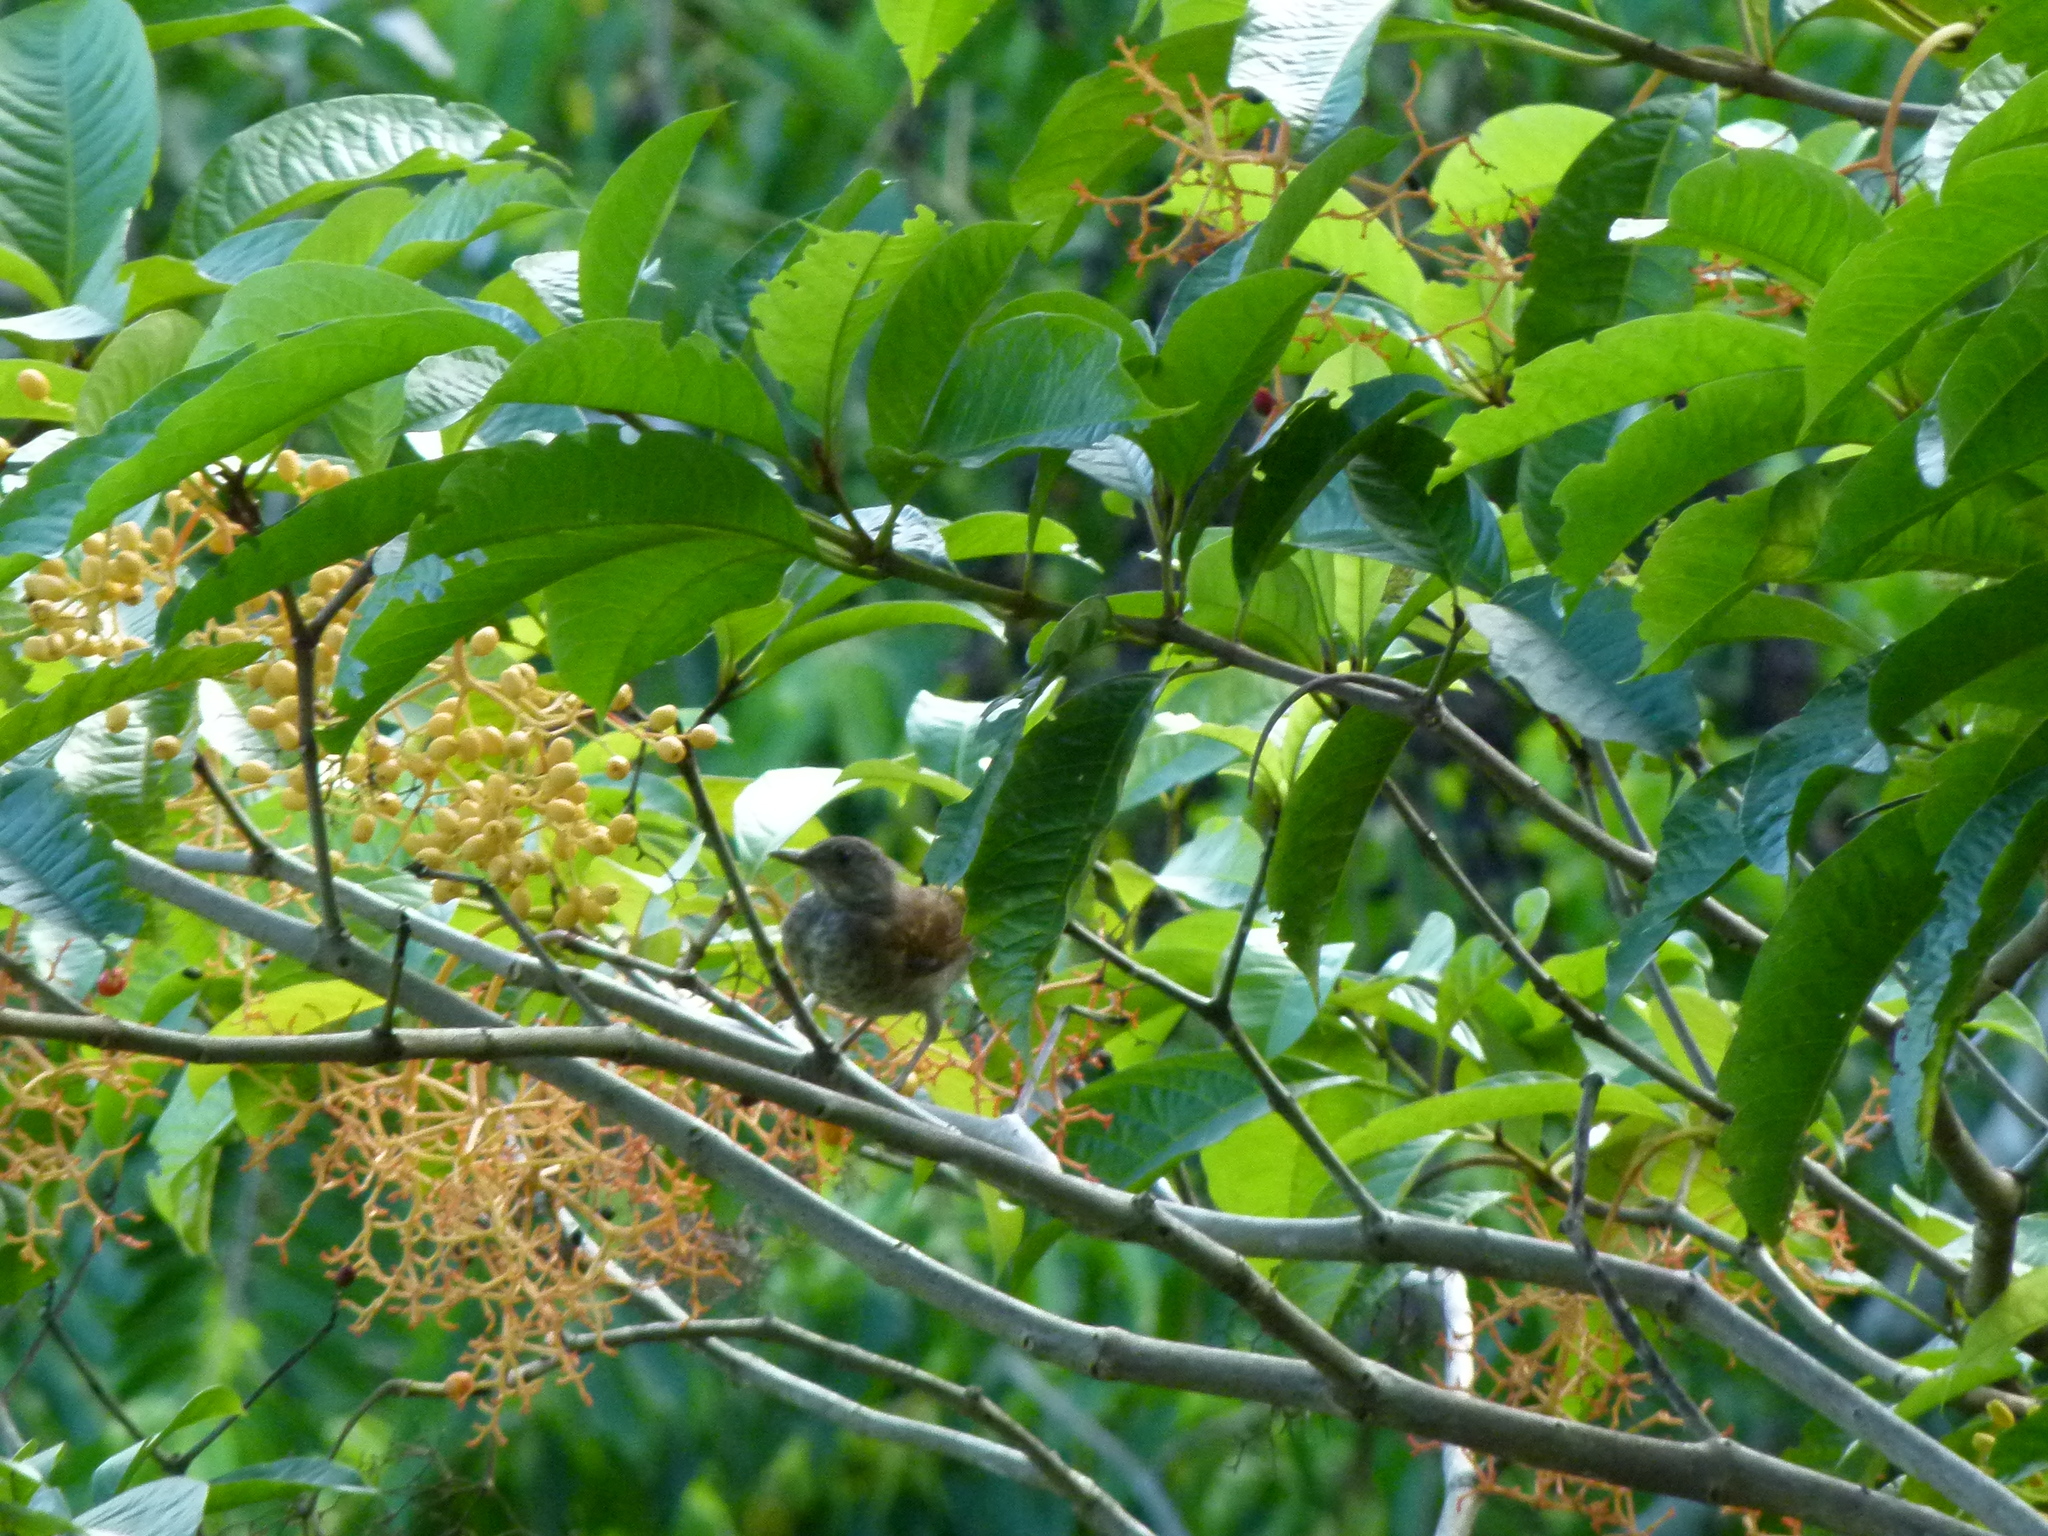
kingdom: Animalia
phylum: Chordata
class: Aves
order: Passeriformes
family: Turdidae
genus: Turdus
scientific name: Turdus leucomelas
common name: Pale-breasted thrush
